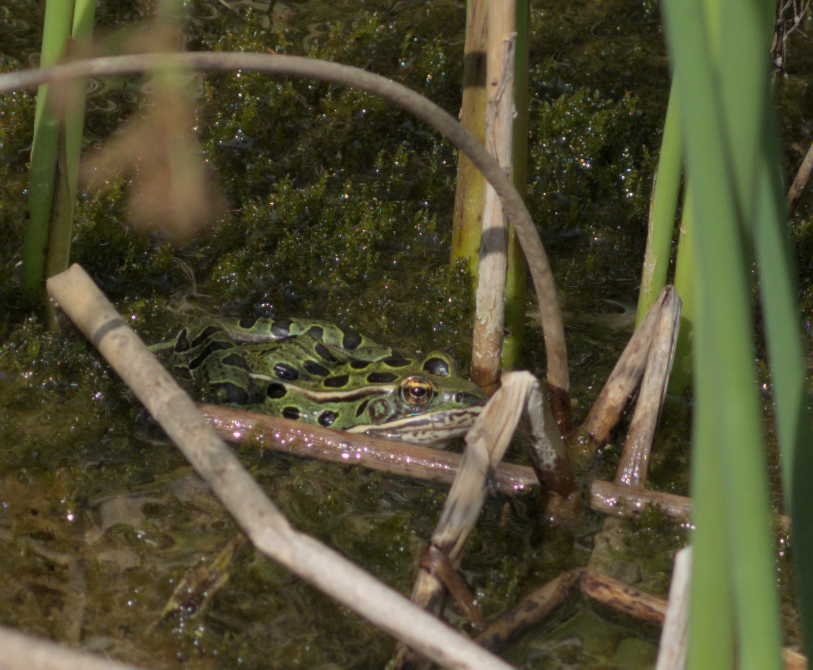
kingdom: Animalia
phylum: Chordata
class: Amphibia
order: Anura
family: Ranidae
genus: Lithobates
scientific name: Lithobates pipiens
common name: Northern leopard frog
